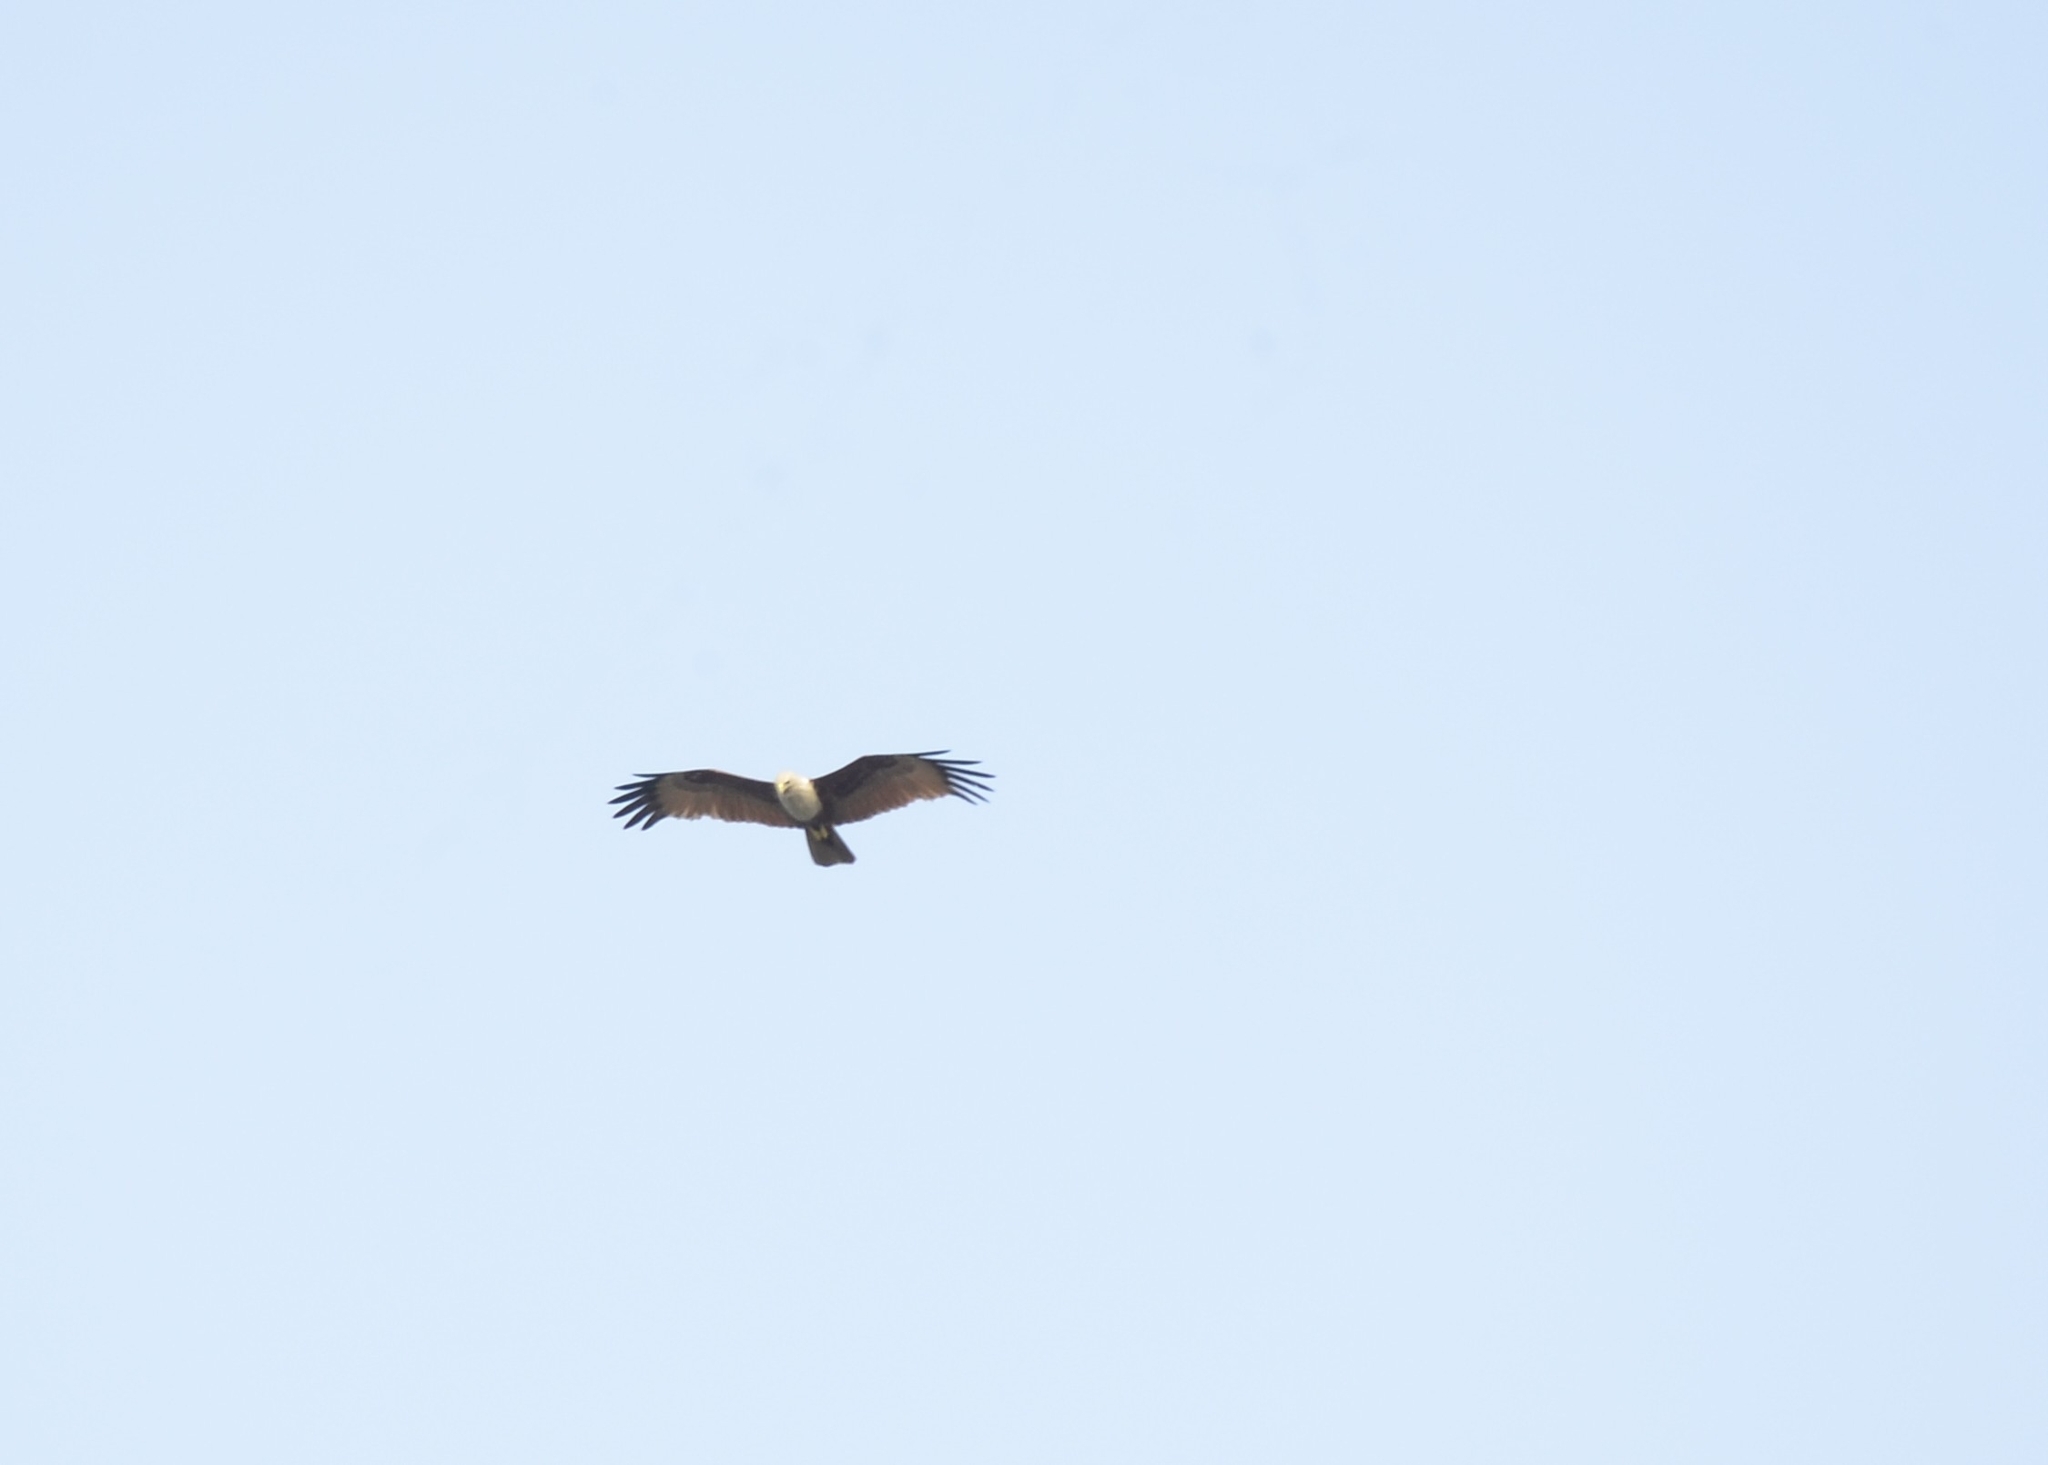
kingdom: Animalia
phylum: Chordata
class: Aves
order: Accipitriformes
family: Accipitridae
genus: Haliastur
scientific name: Haliastur indus
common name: Brahminy kite
